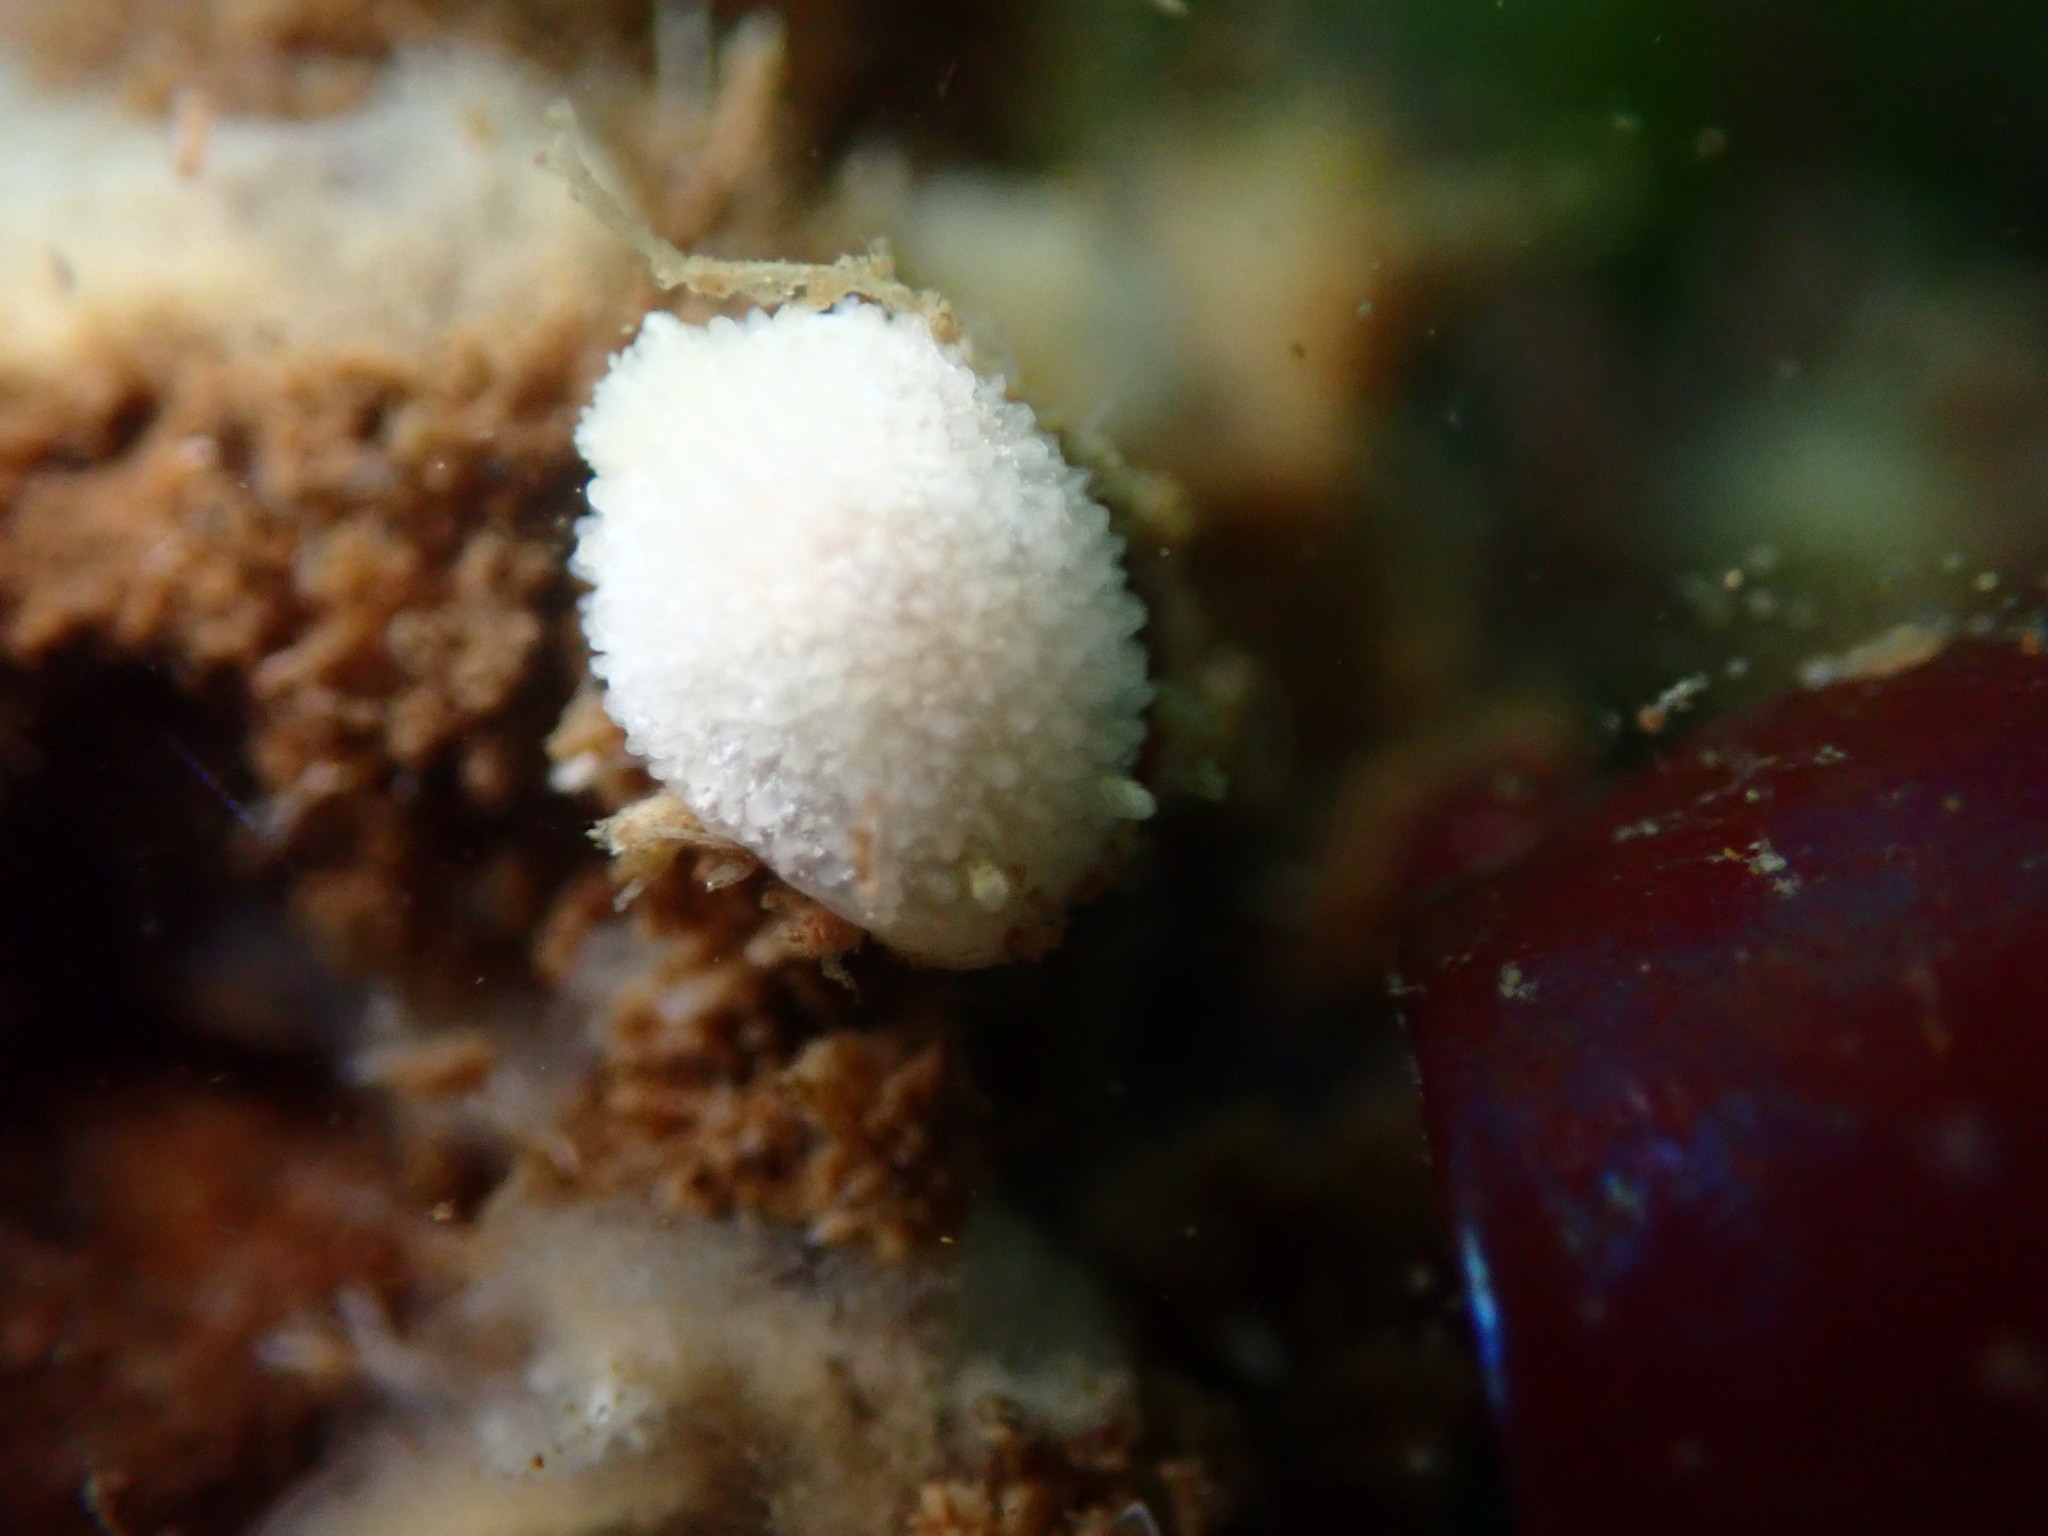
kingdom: Animalia
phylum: Mollusca
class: Gastropoda
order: Nudibranchia
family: Calycidorididae
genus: Diaphorodoris
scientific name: Diaphorodoris lirulatocauda
